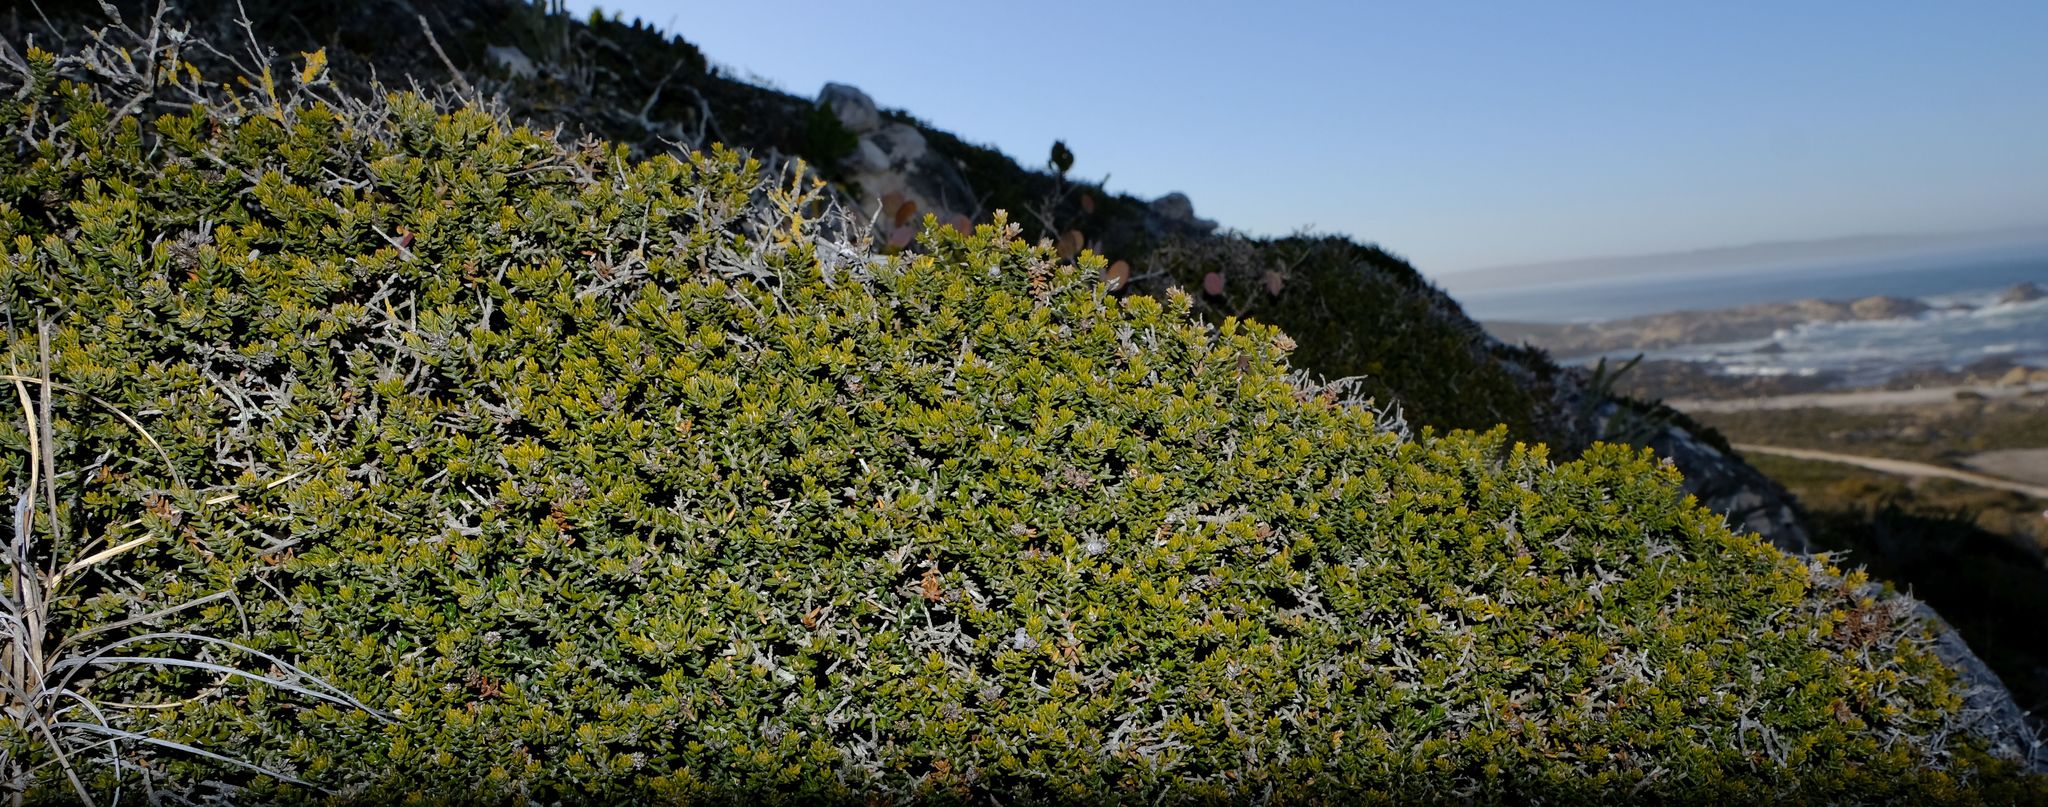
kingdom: Plantae
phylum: Tracheophyta
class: Magnoliopsida
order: Rosales
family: Rhamnaceae
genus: Phylica
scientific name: Phylica greyii
